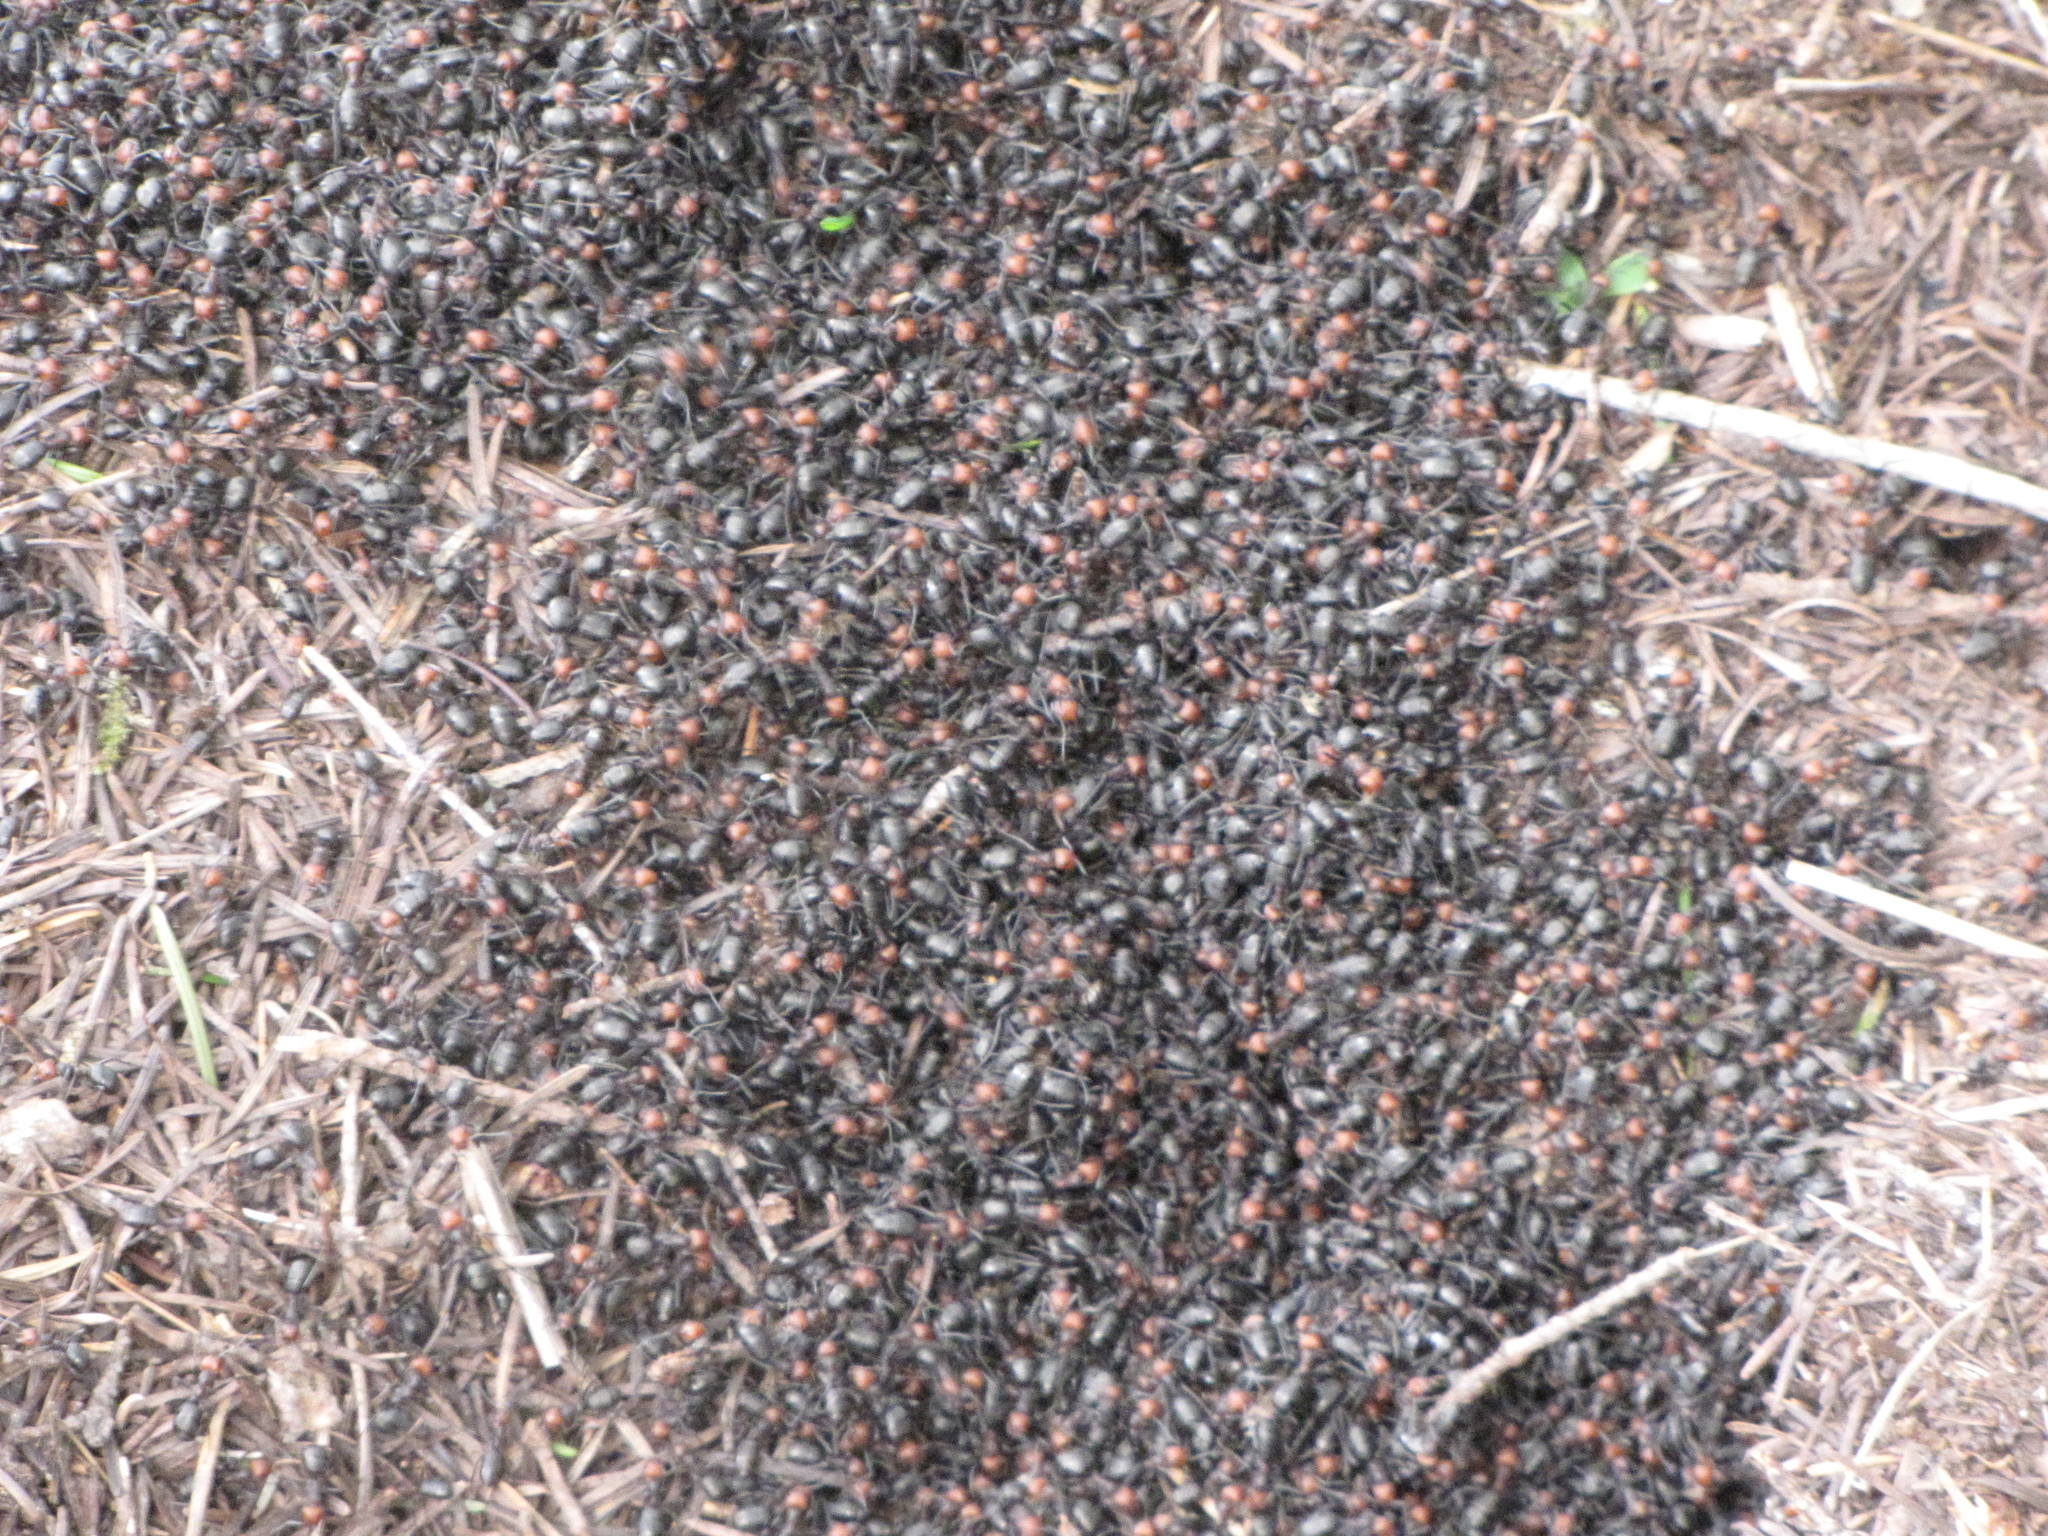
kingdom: Animalia
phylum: Arthropoda
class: Insecta
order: Hymenoptera
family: Formicidae
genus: Formica
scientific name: Formica obscuripes
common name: Western thatching ant
